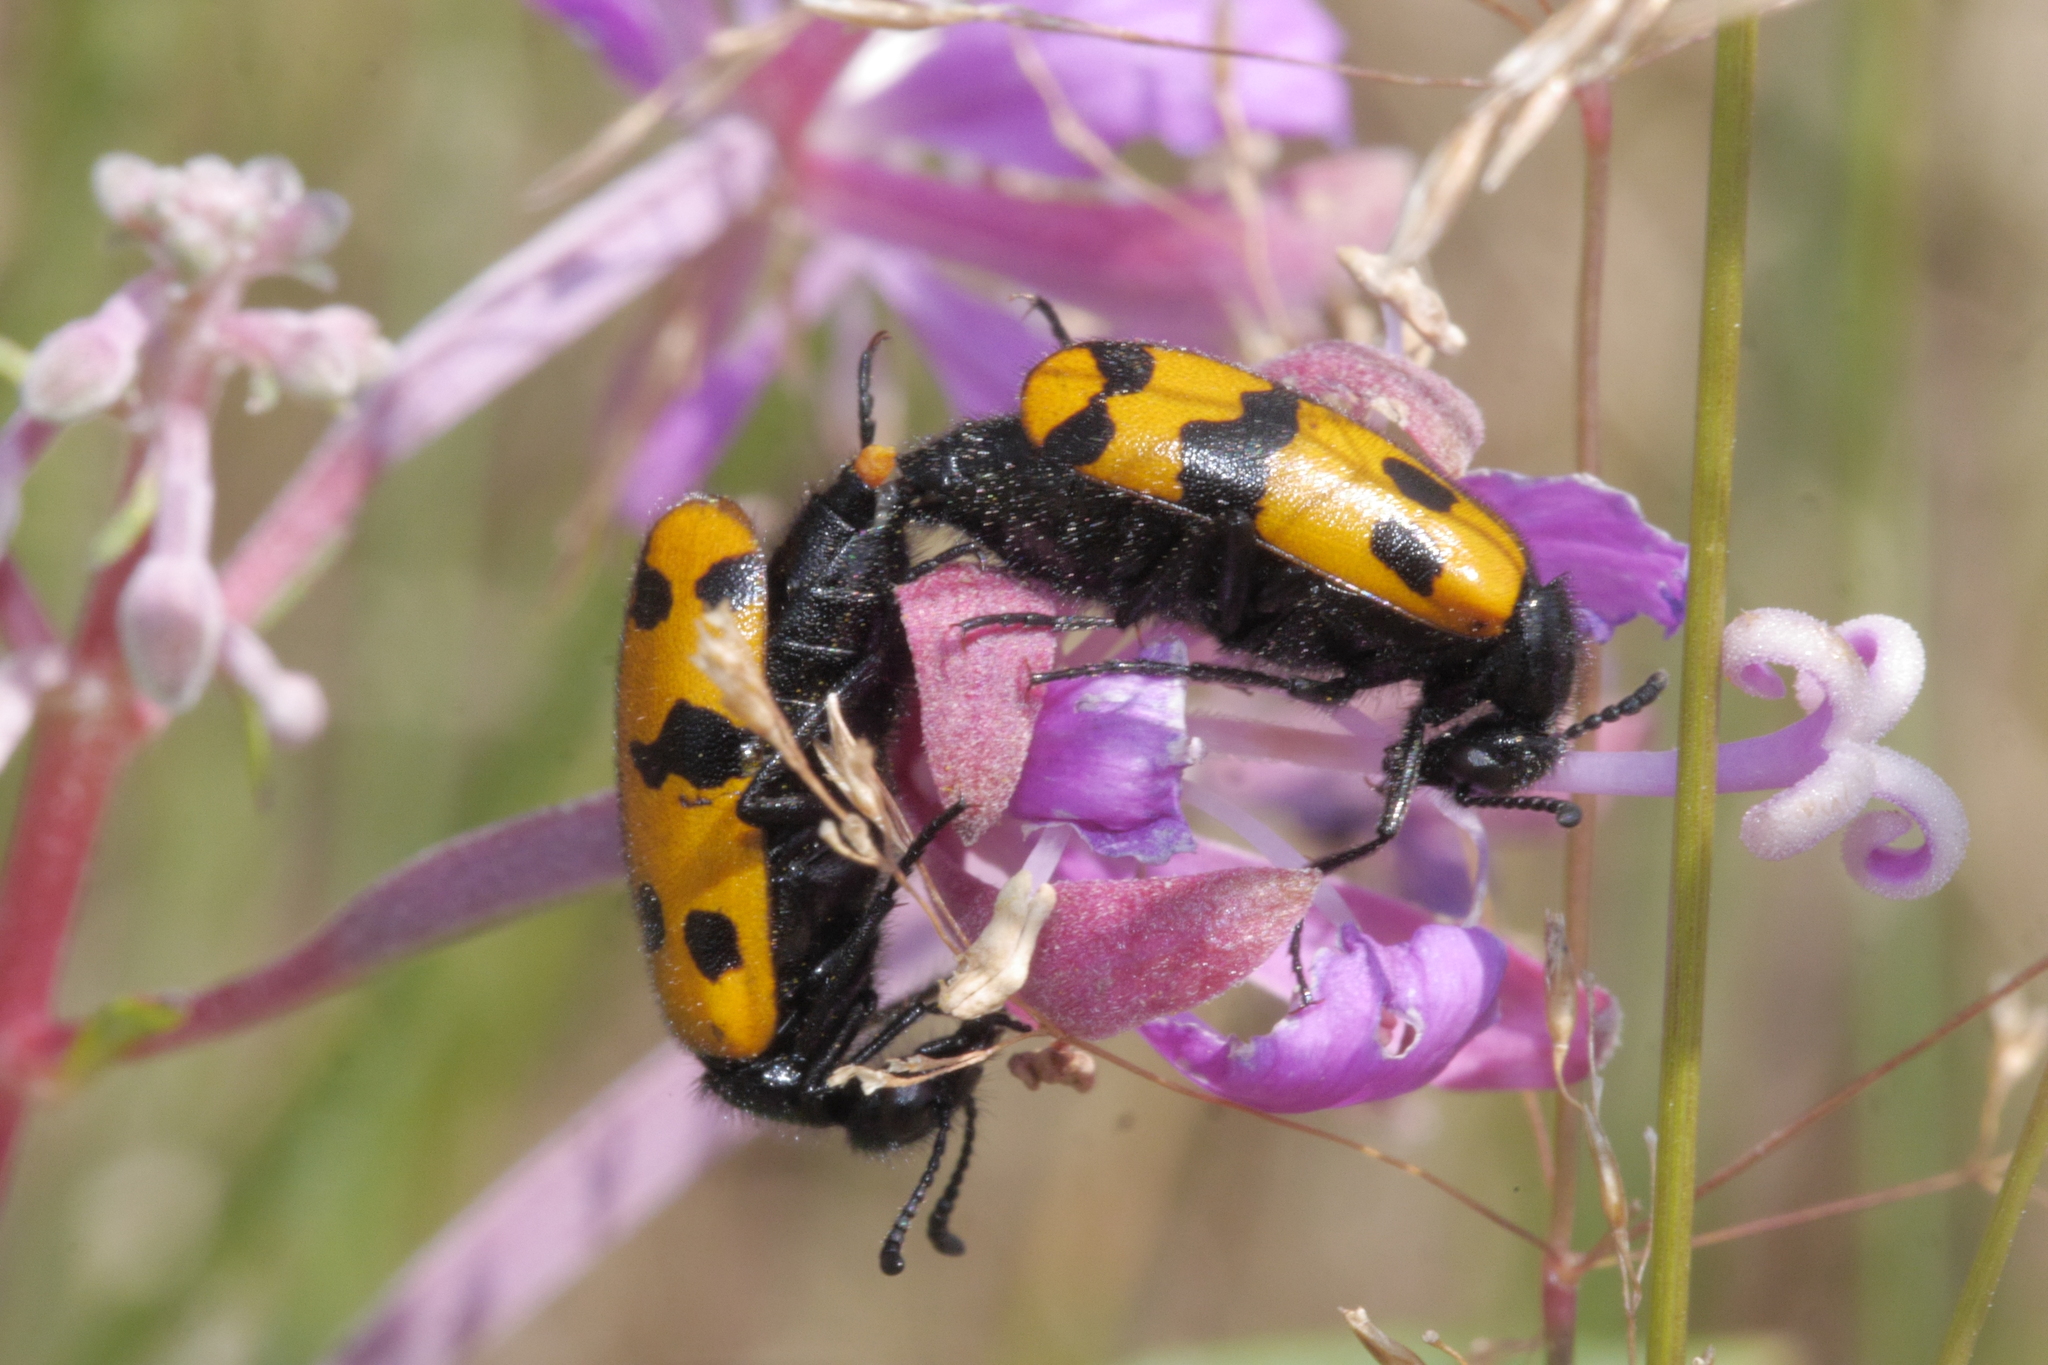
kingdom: Animalia
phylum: Arthropoda
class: Insecta
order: Coleoptera
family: Meloidae
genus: Mylabris
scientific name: Mylabris connata
